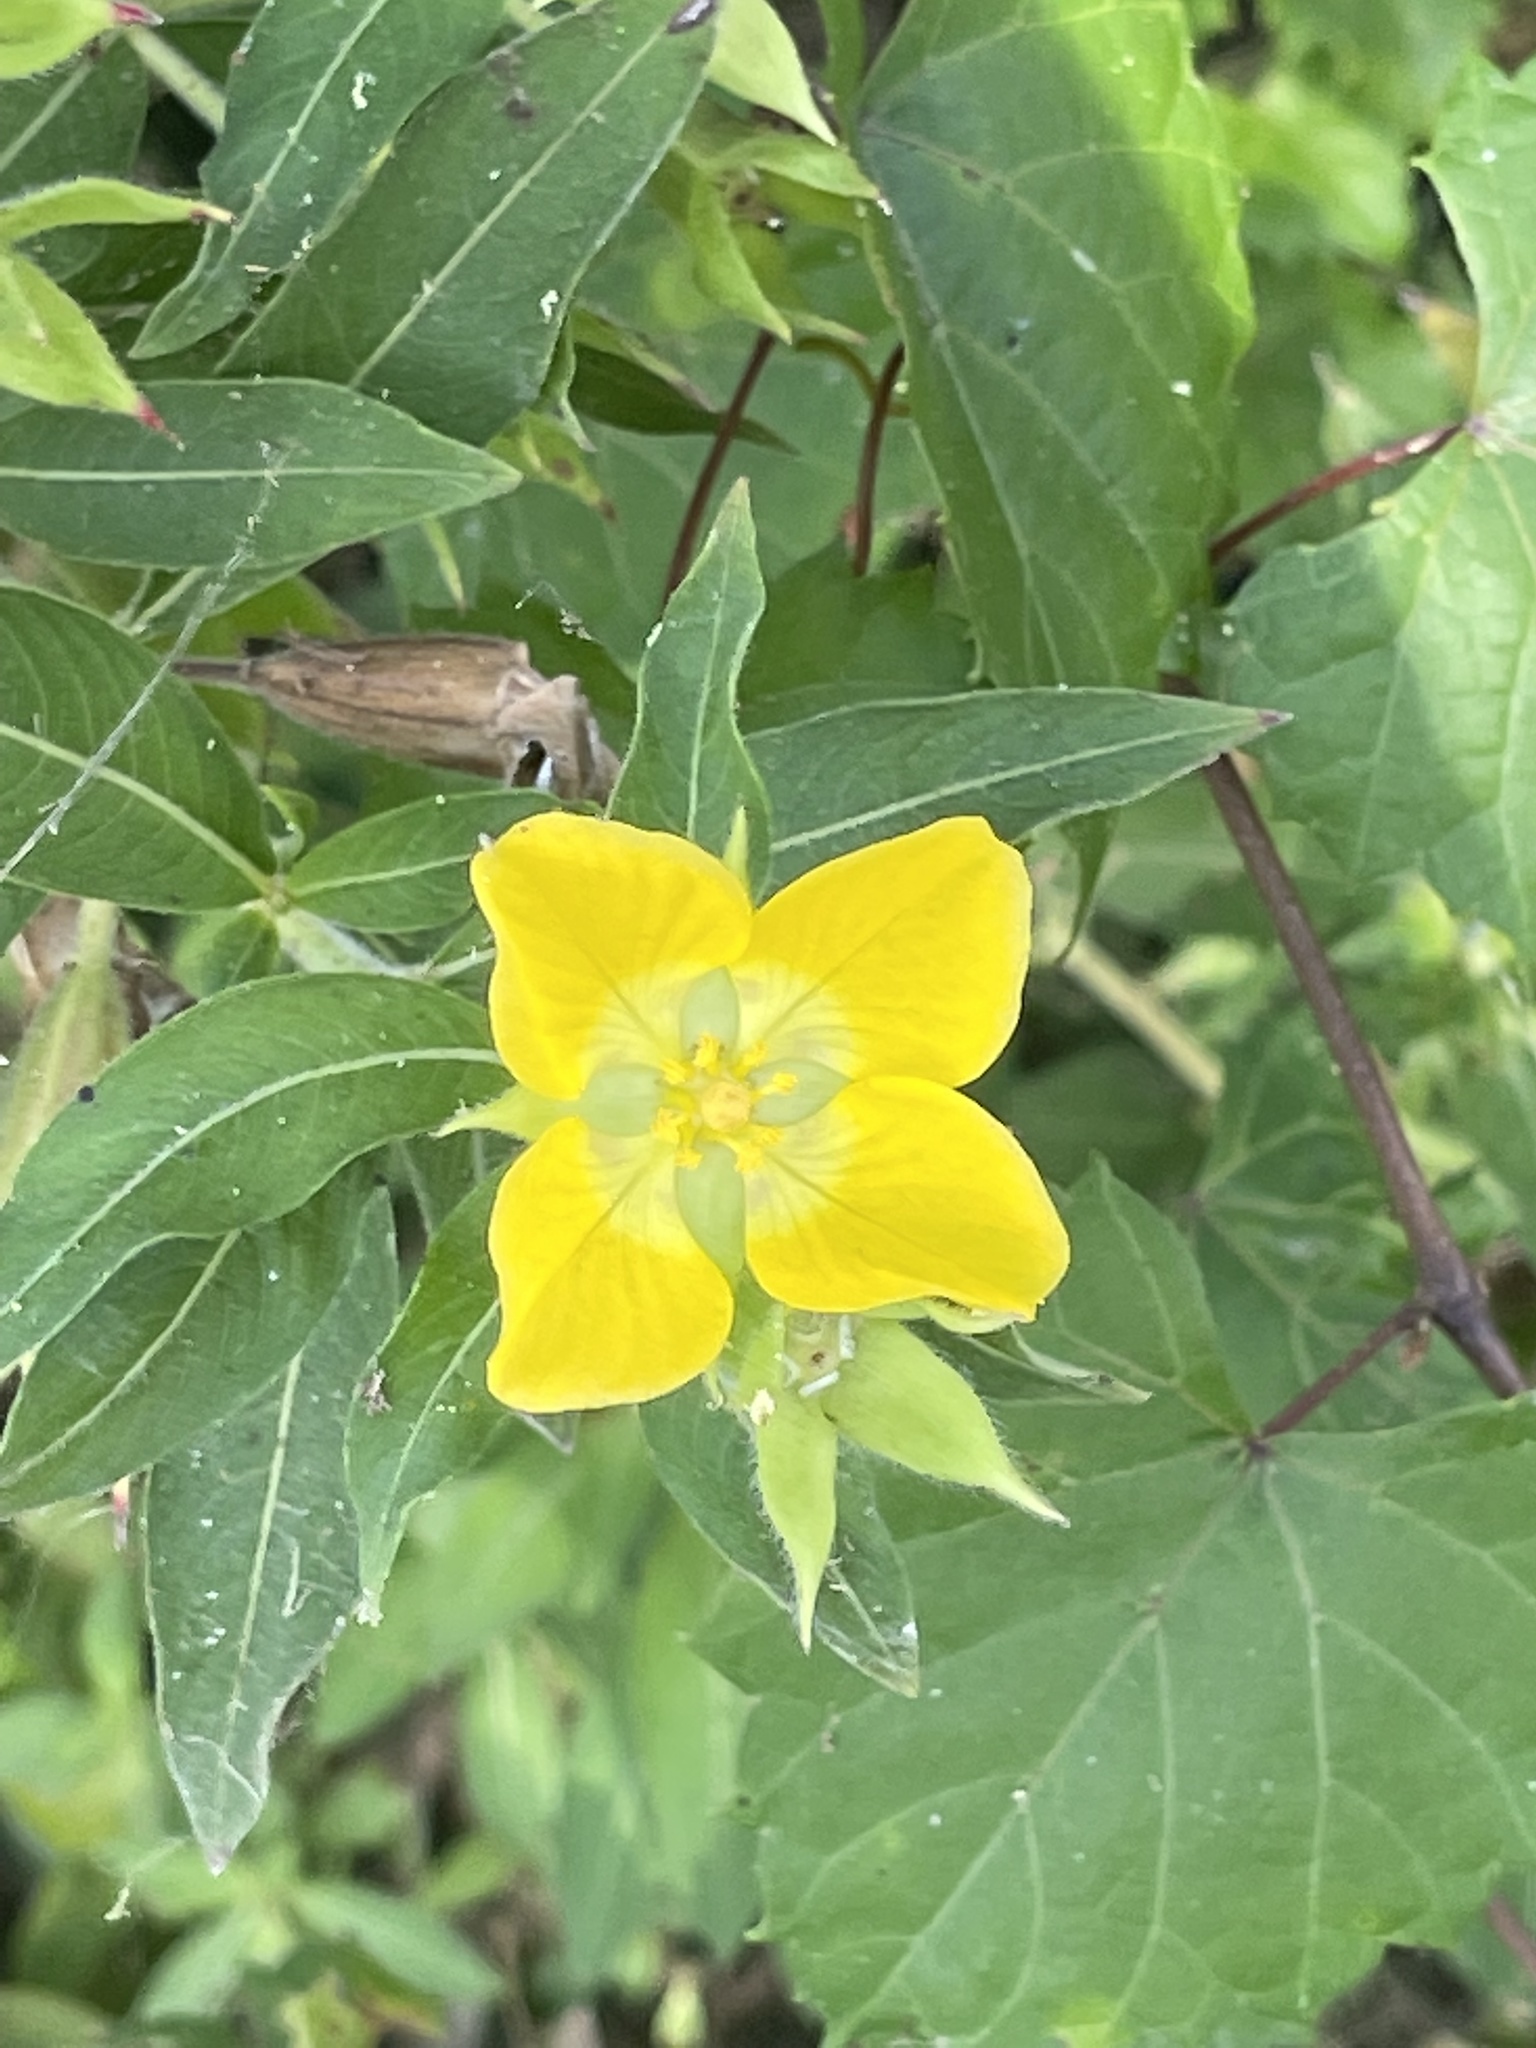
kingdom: Plantae
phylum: Tracheophyta
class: Magnoliopsida
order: Myrtales
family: Onagraceae
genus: Ludwigia
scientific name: Ludwigia peruviana
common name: Peruvian primrose-willow
